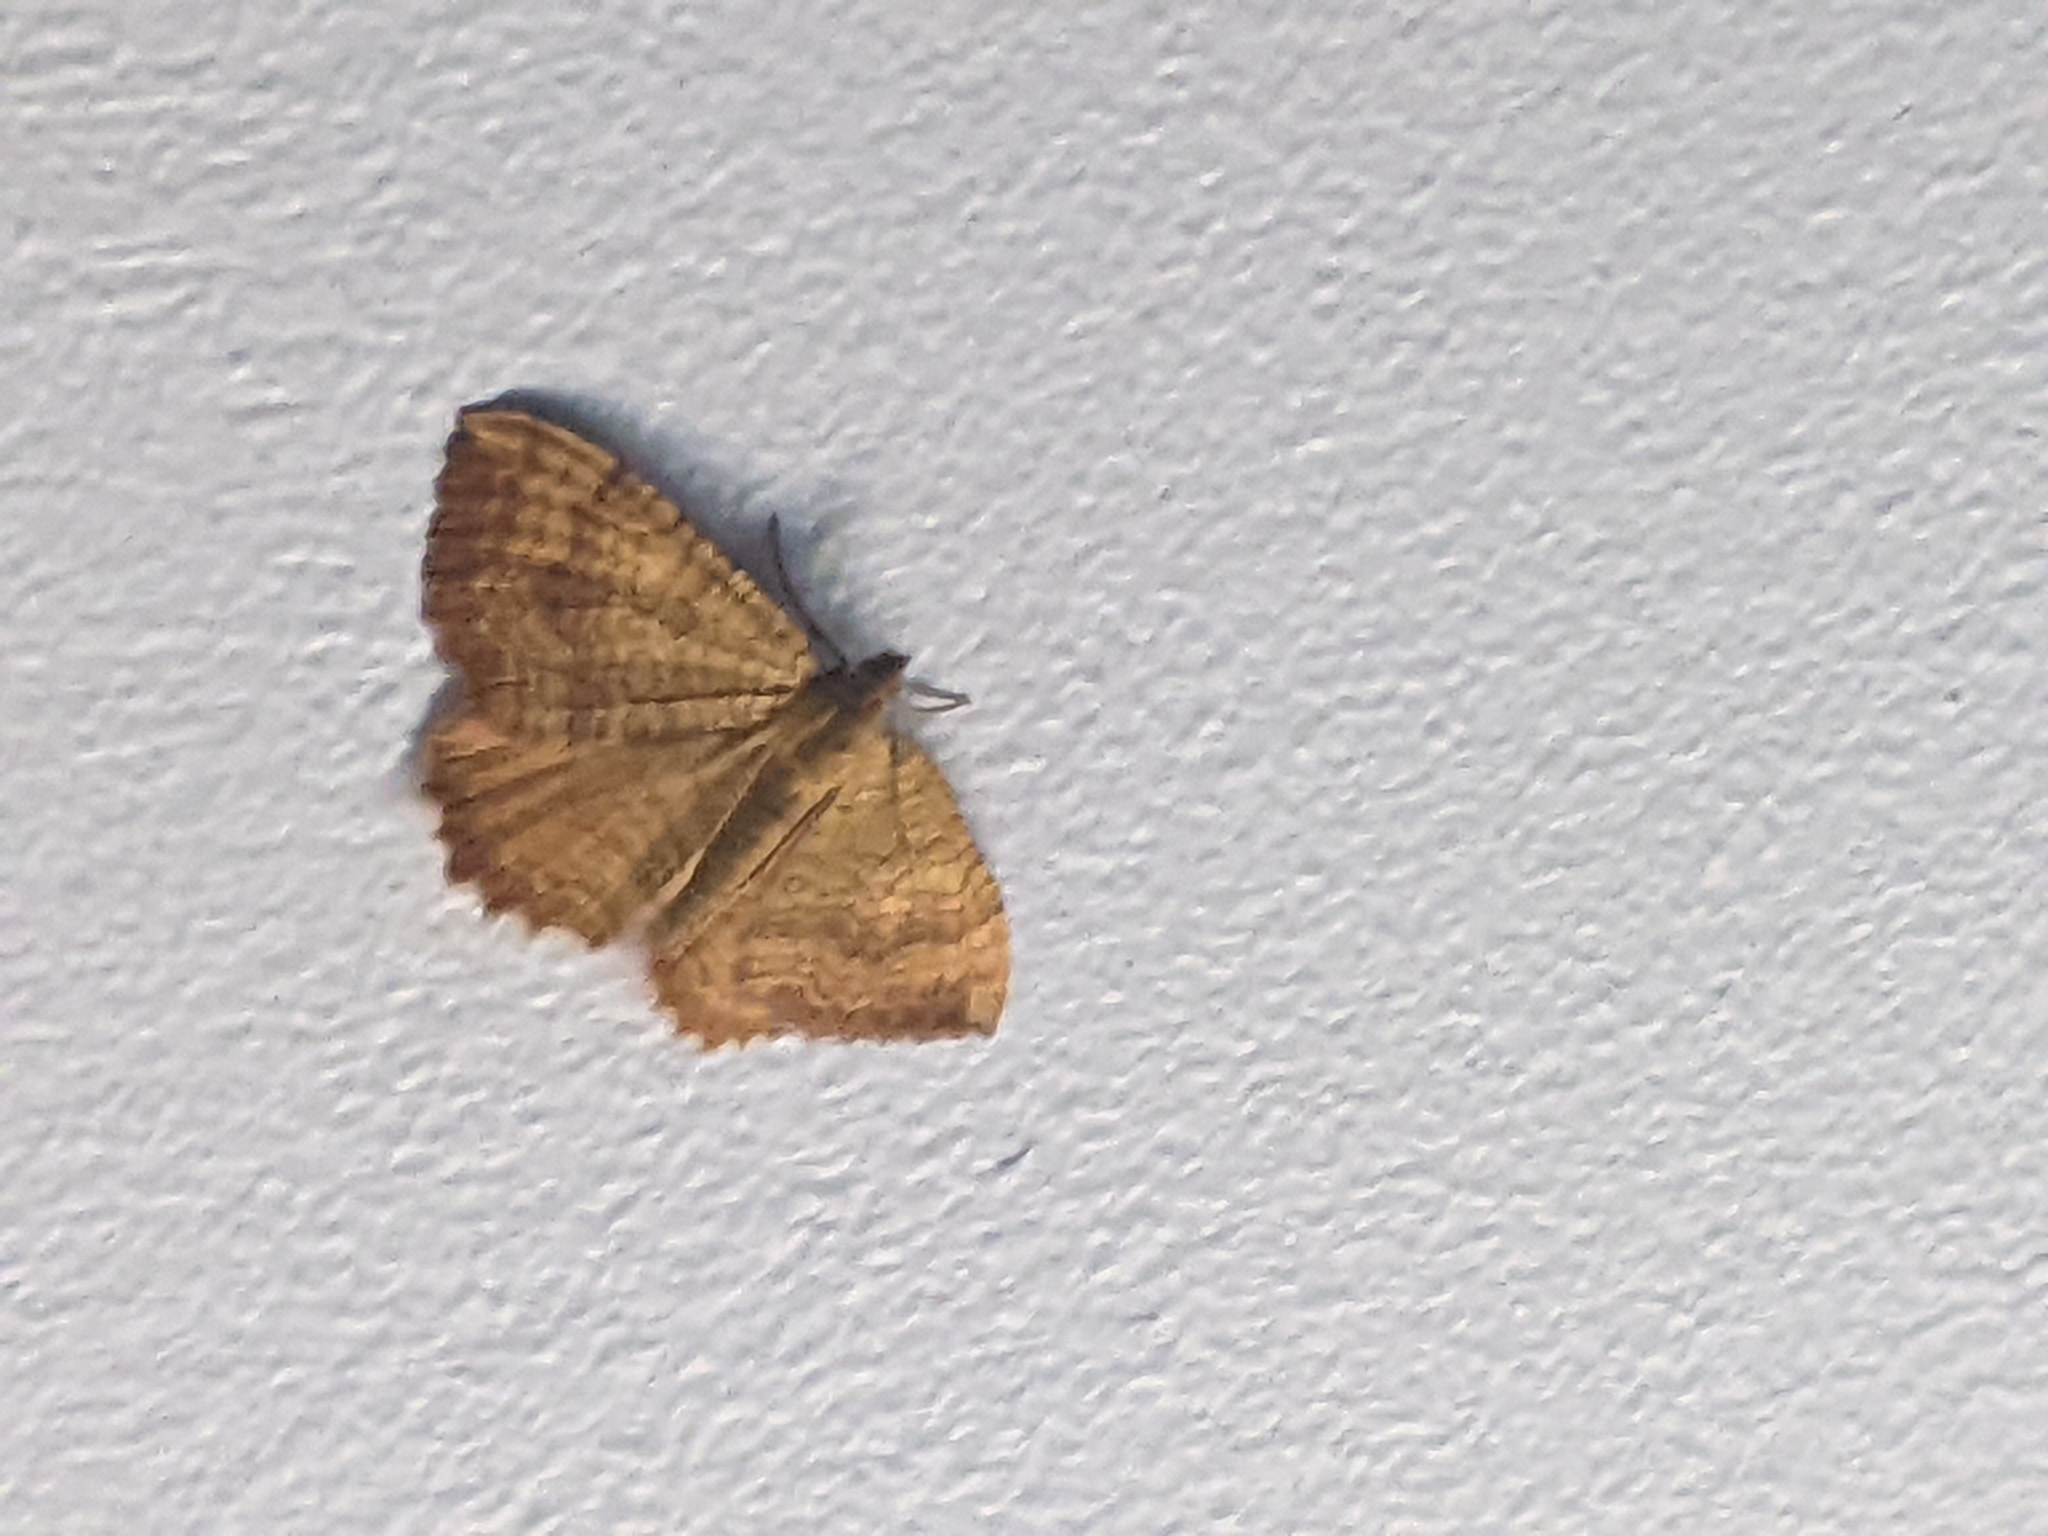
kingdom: Animalia
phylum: Arthropoda
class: Insecta
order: Lepidoptera
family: Geometridae
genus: Camptogramma
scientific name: Camptogramma bilineata
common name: Yellow shell
